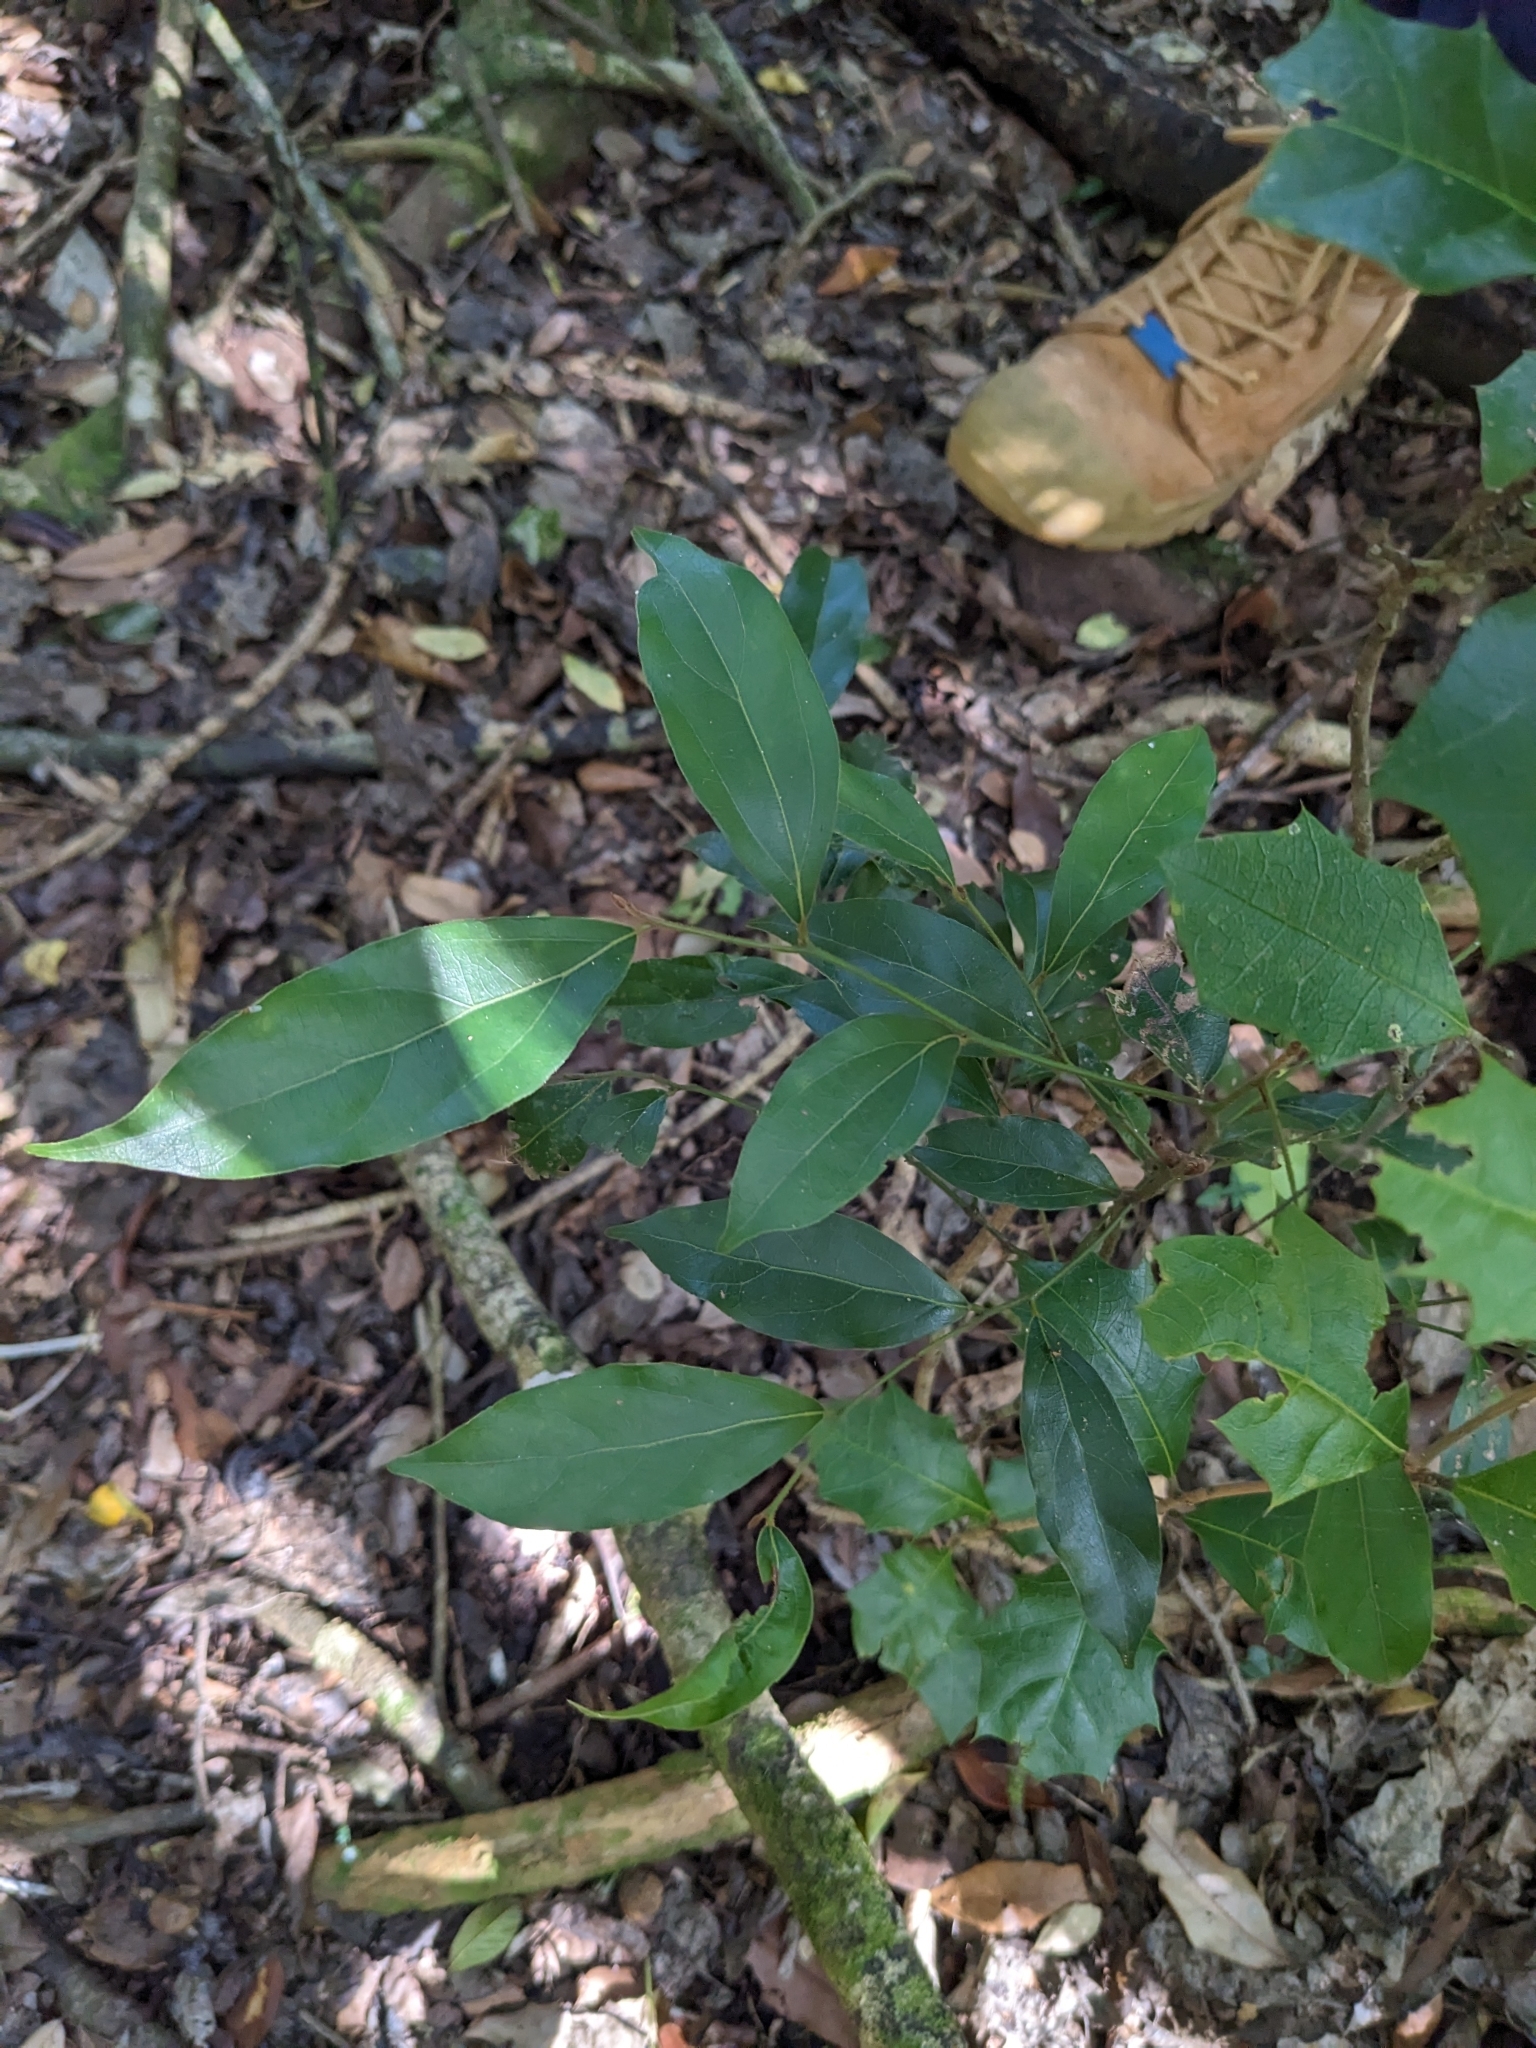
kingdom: Plantae
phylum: Tracheophyta
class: Magnoliopsida
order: Malpighiales
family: Euphorbiaceae
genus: Alchornea
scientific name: Alchornea ilicifolia
